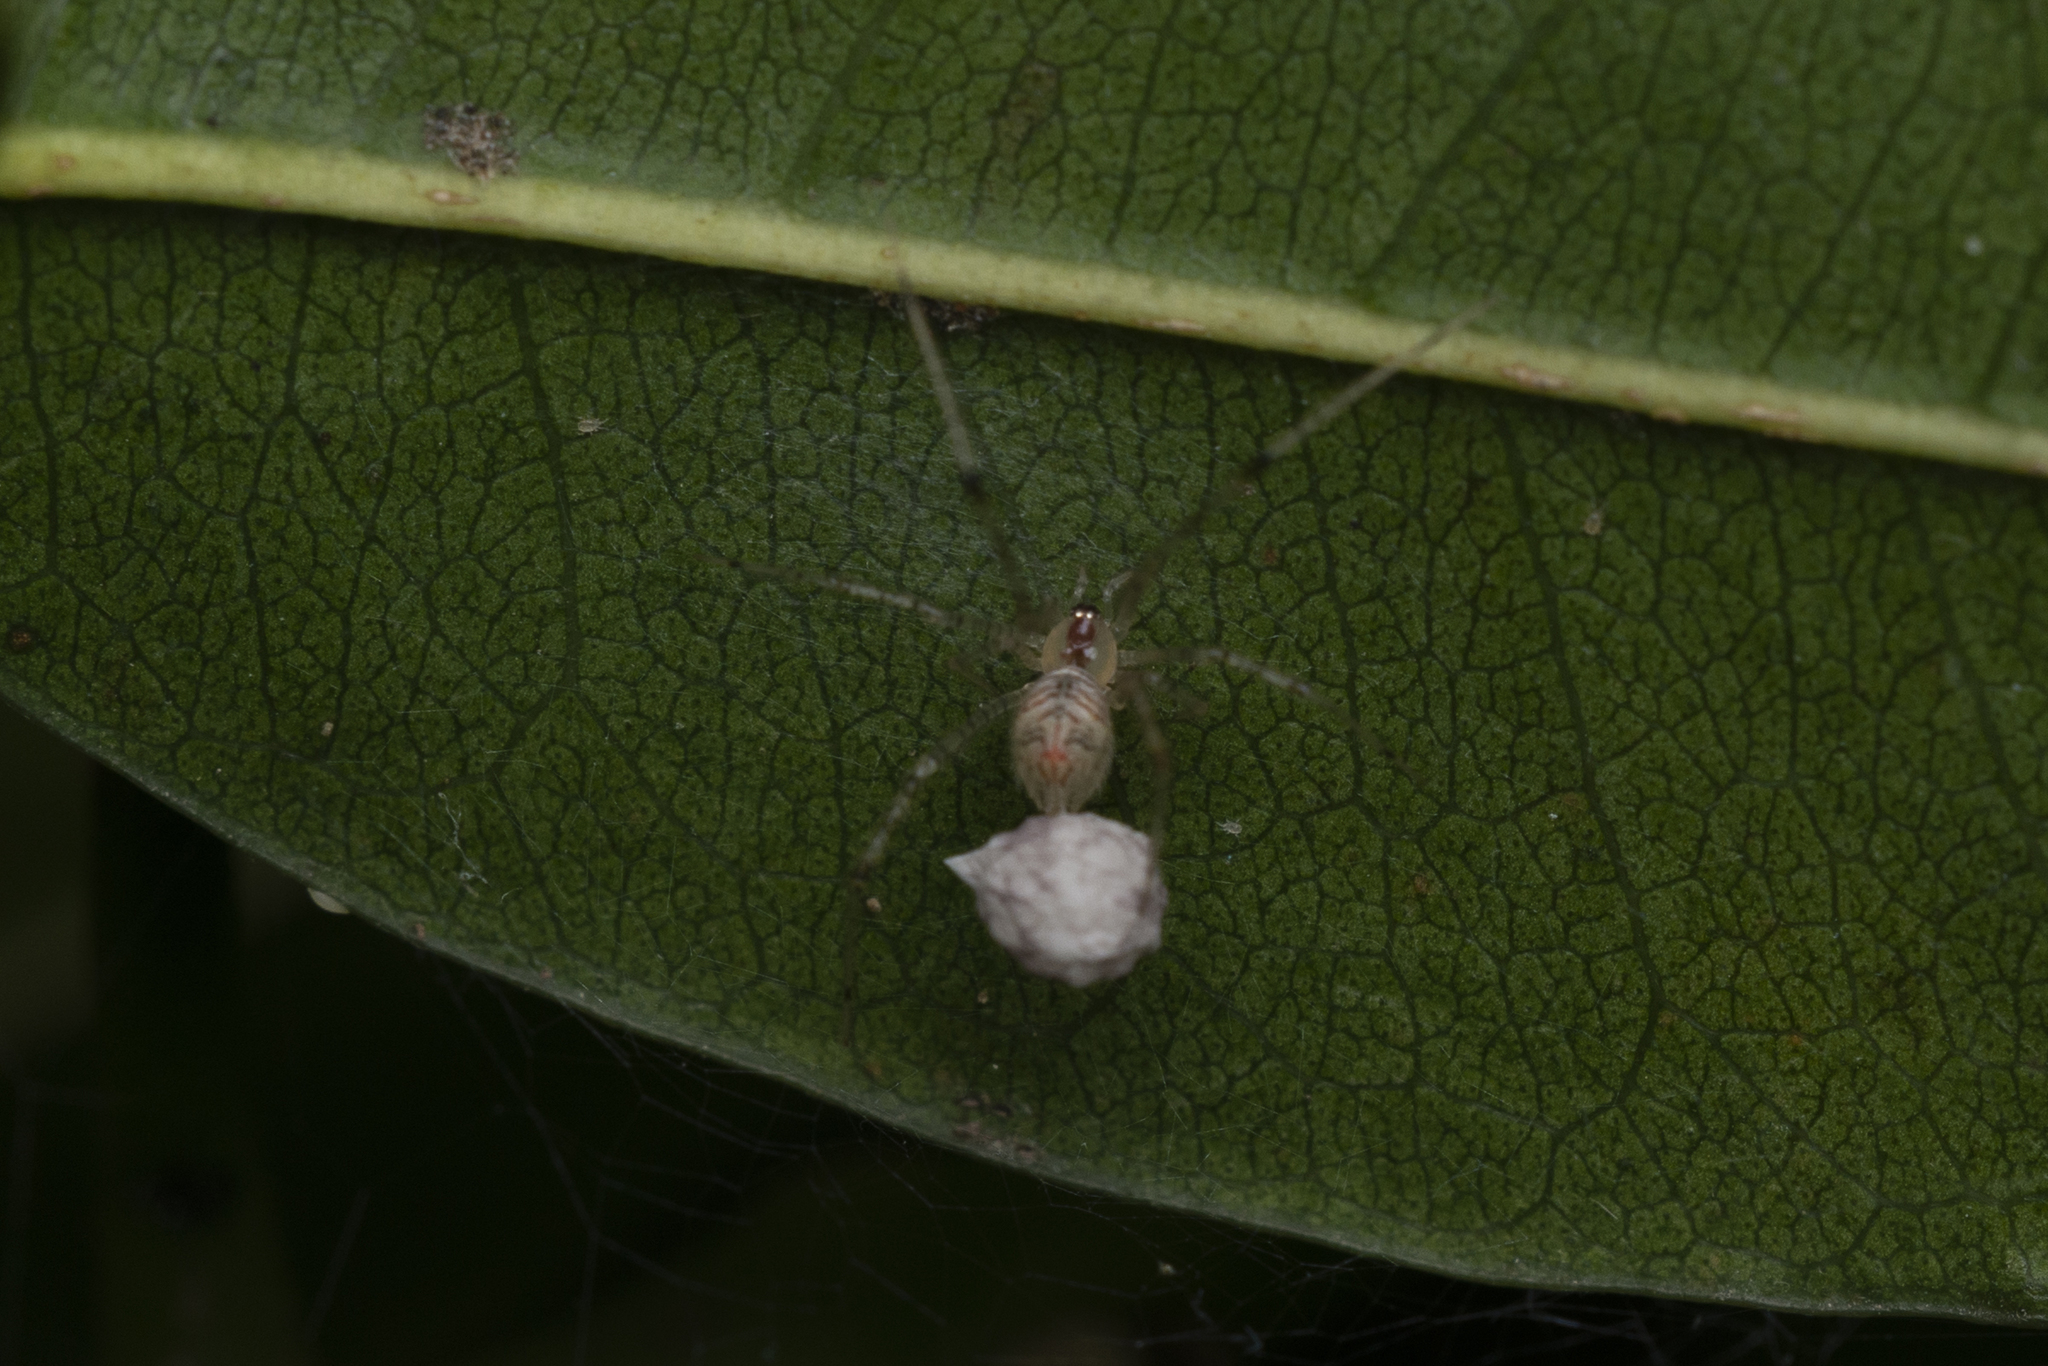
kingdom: Animalia
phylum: Arthropoda
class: Arachnida
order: Araneae
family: Theridiidae
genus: Chrysso
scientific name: Chrysso lingchuanensis
